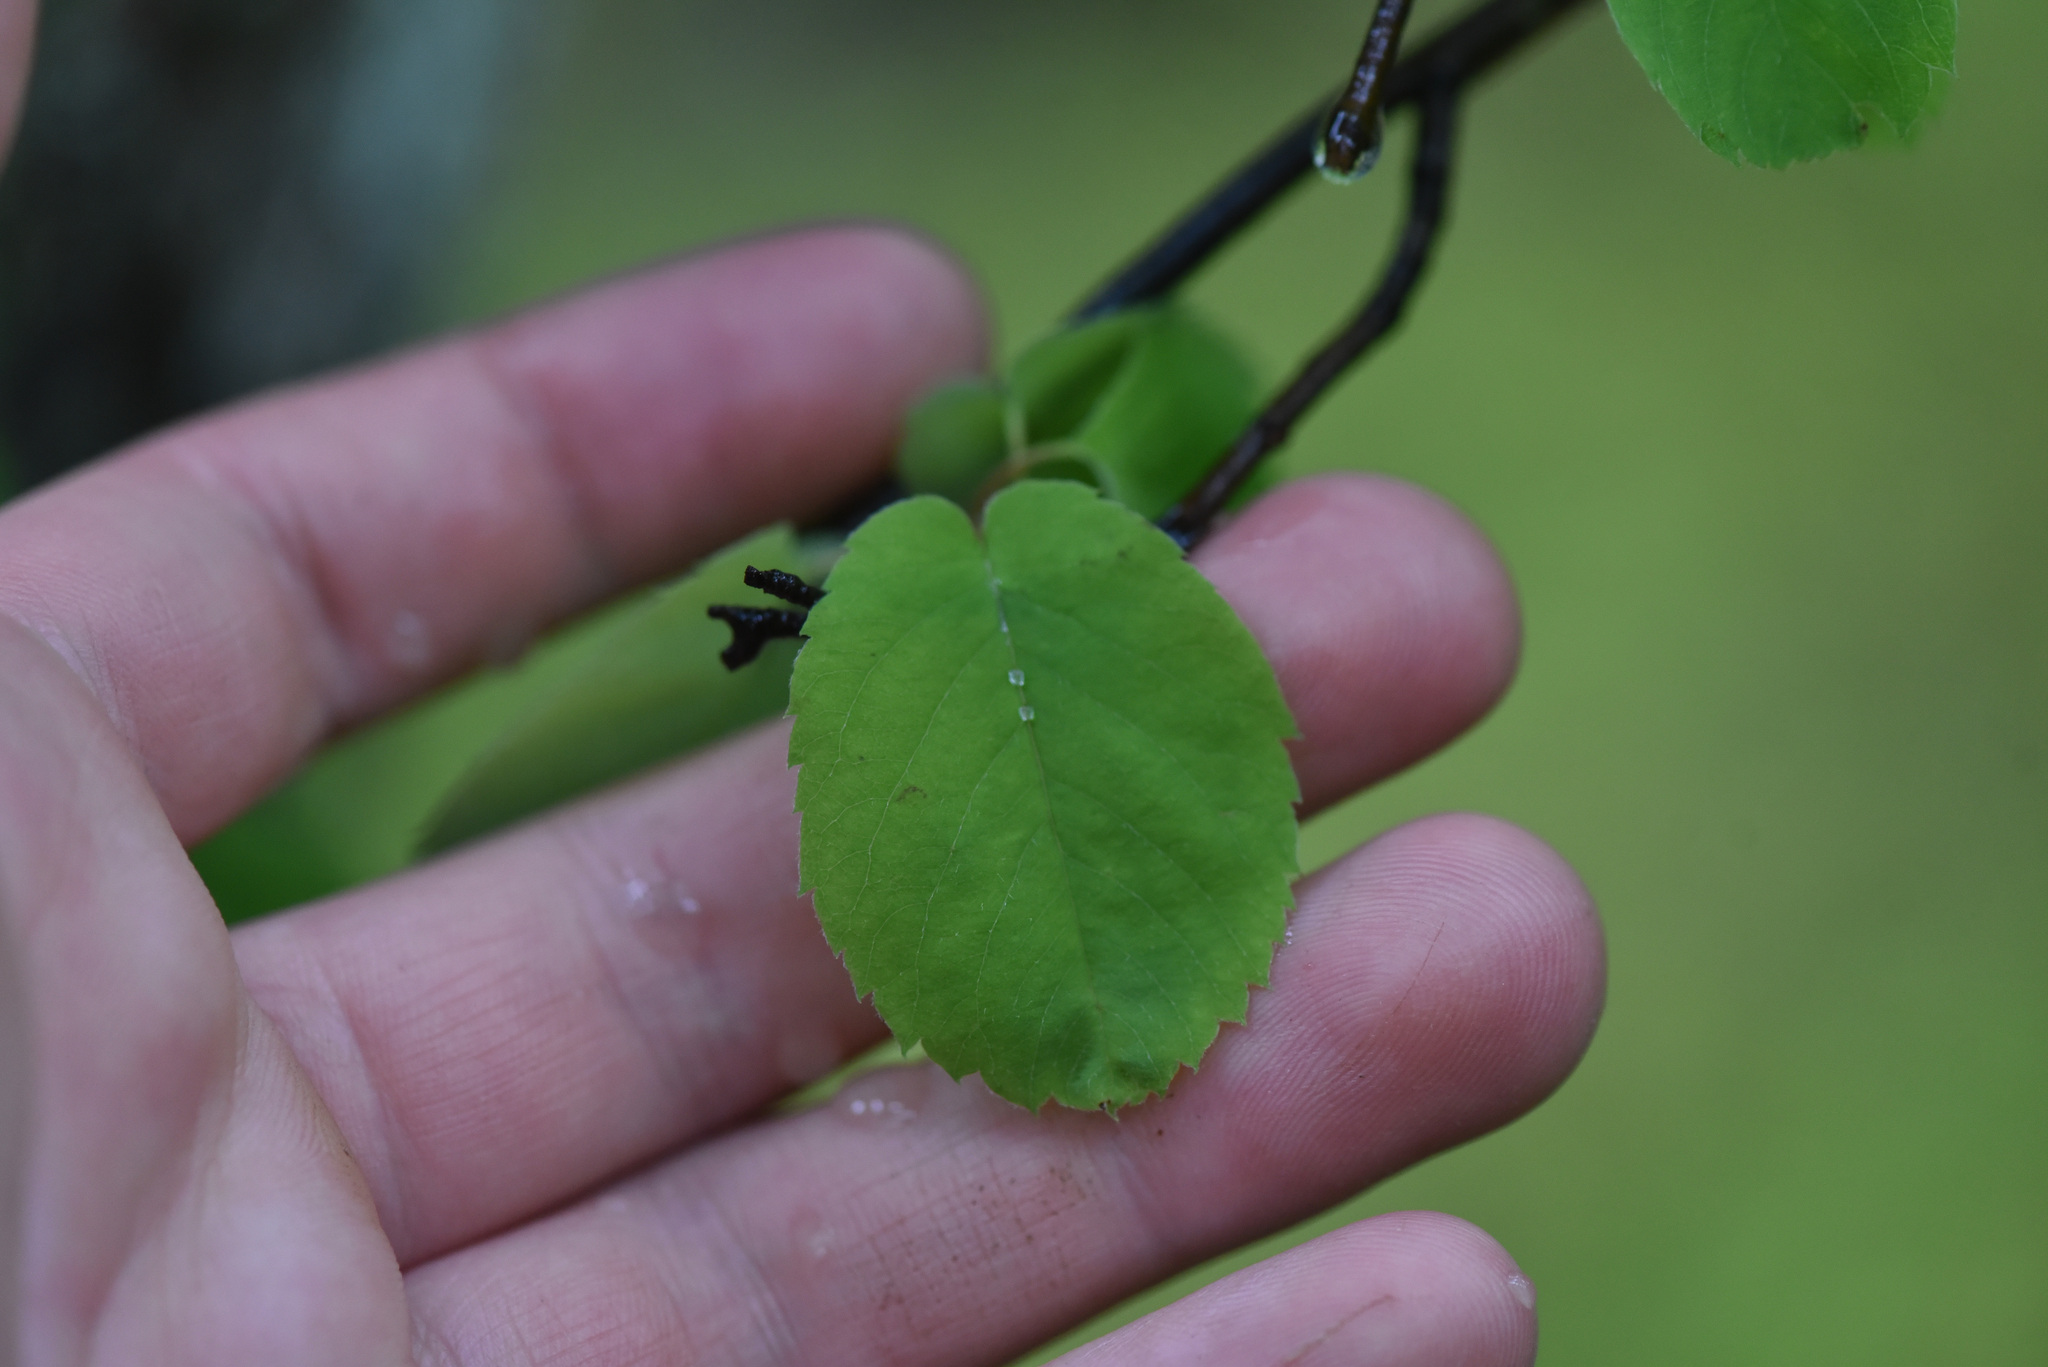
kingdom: Plantae
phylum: Tracheophyta
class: Magnoliopsida
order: Rosales
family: Rosaceae
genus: Amelanchier
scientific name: Amelanchier alnifolia
